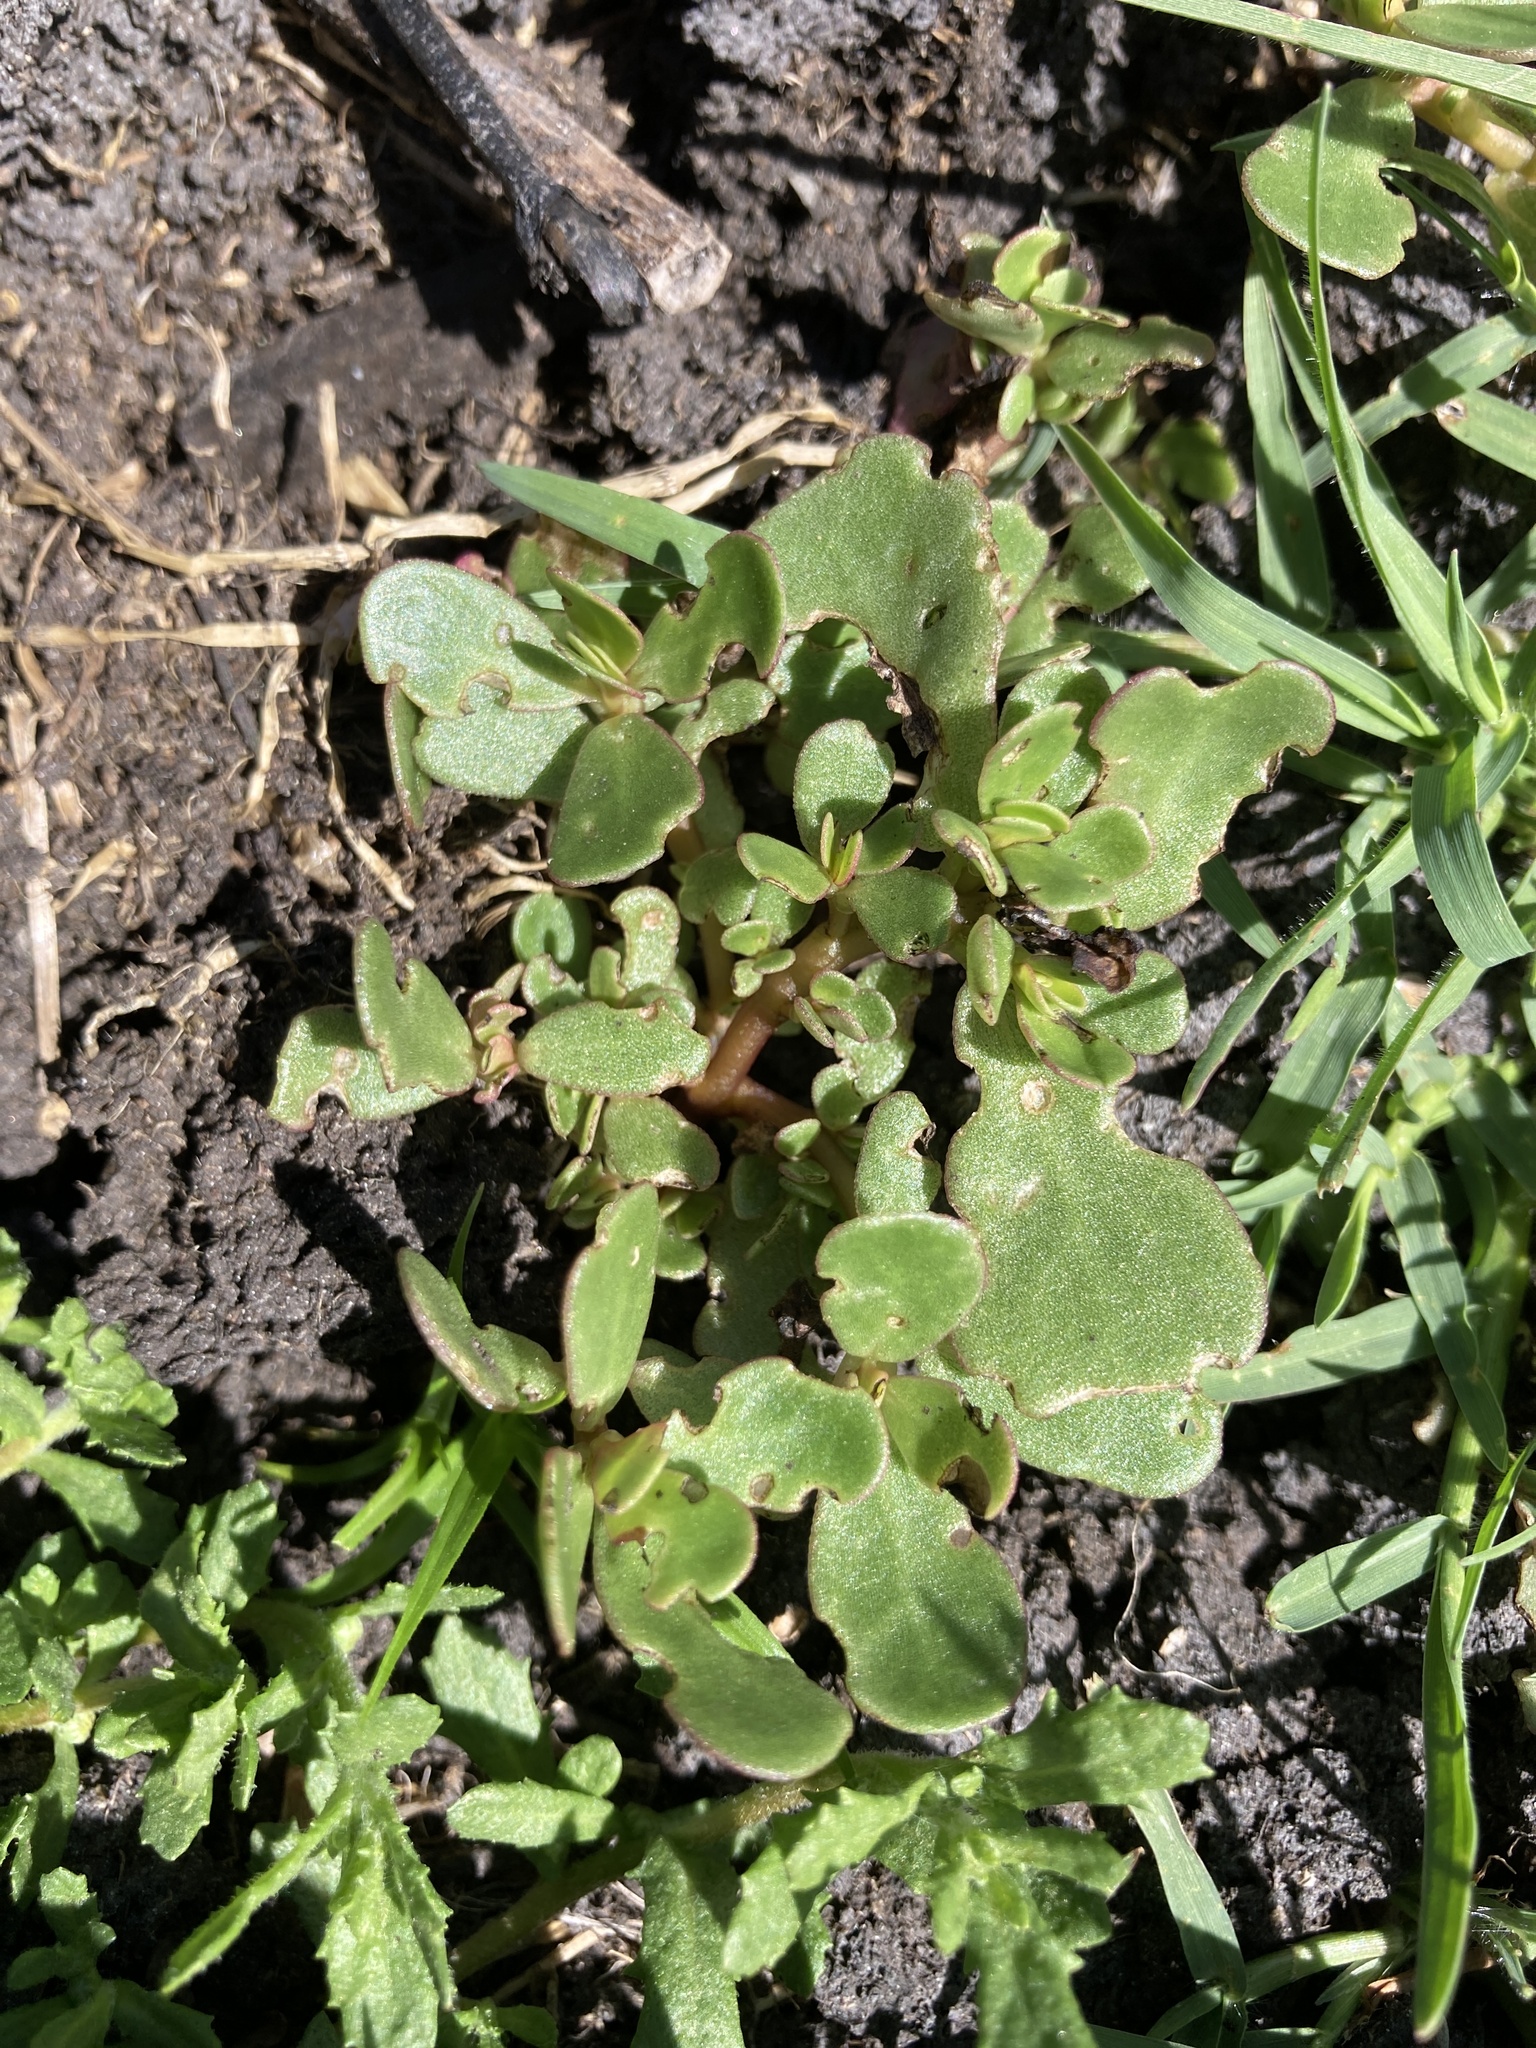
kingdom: Plantae
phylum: Tracheophyta
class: Magnoliopsida
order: Caryophyllales
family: Portulacaceae
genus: Portulaca
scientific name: Portulaca oleracea
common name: Common purslane
